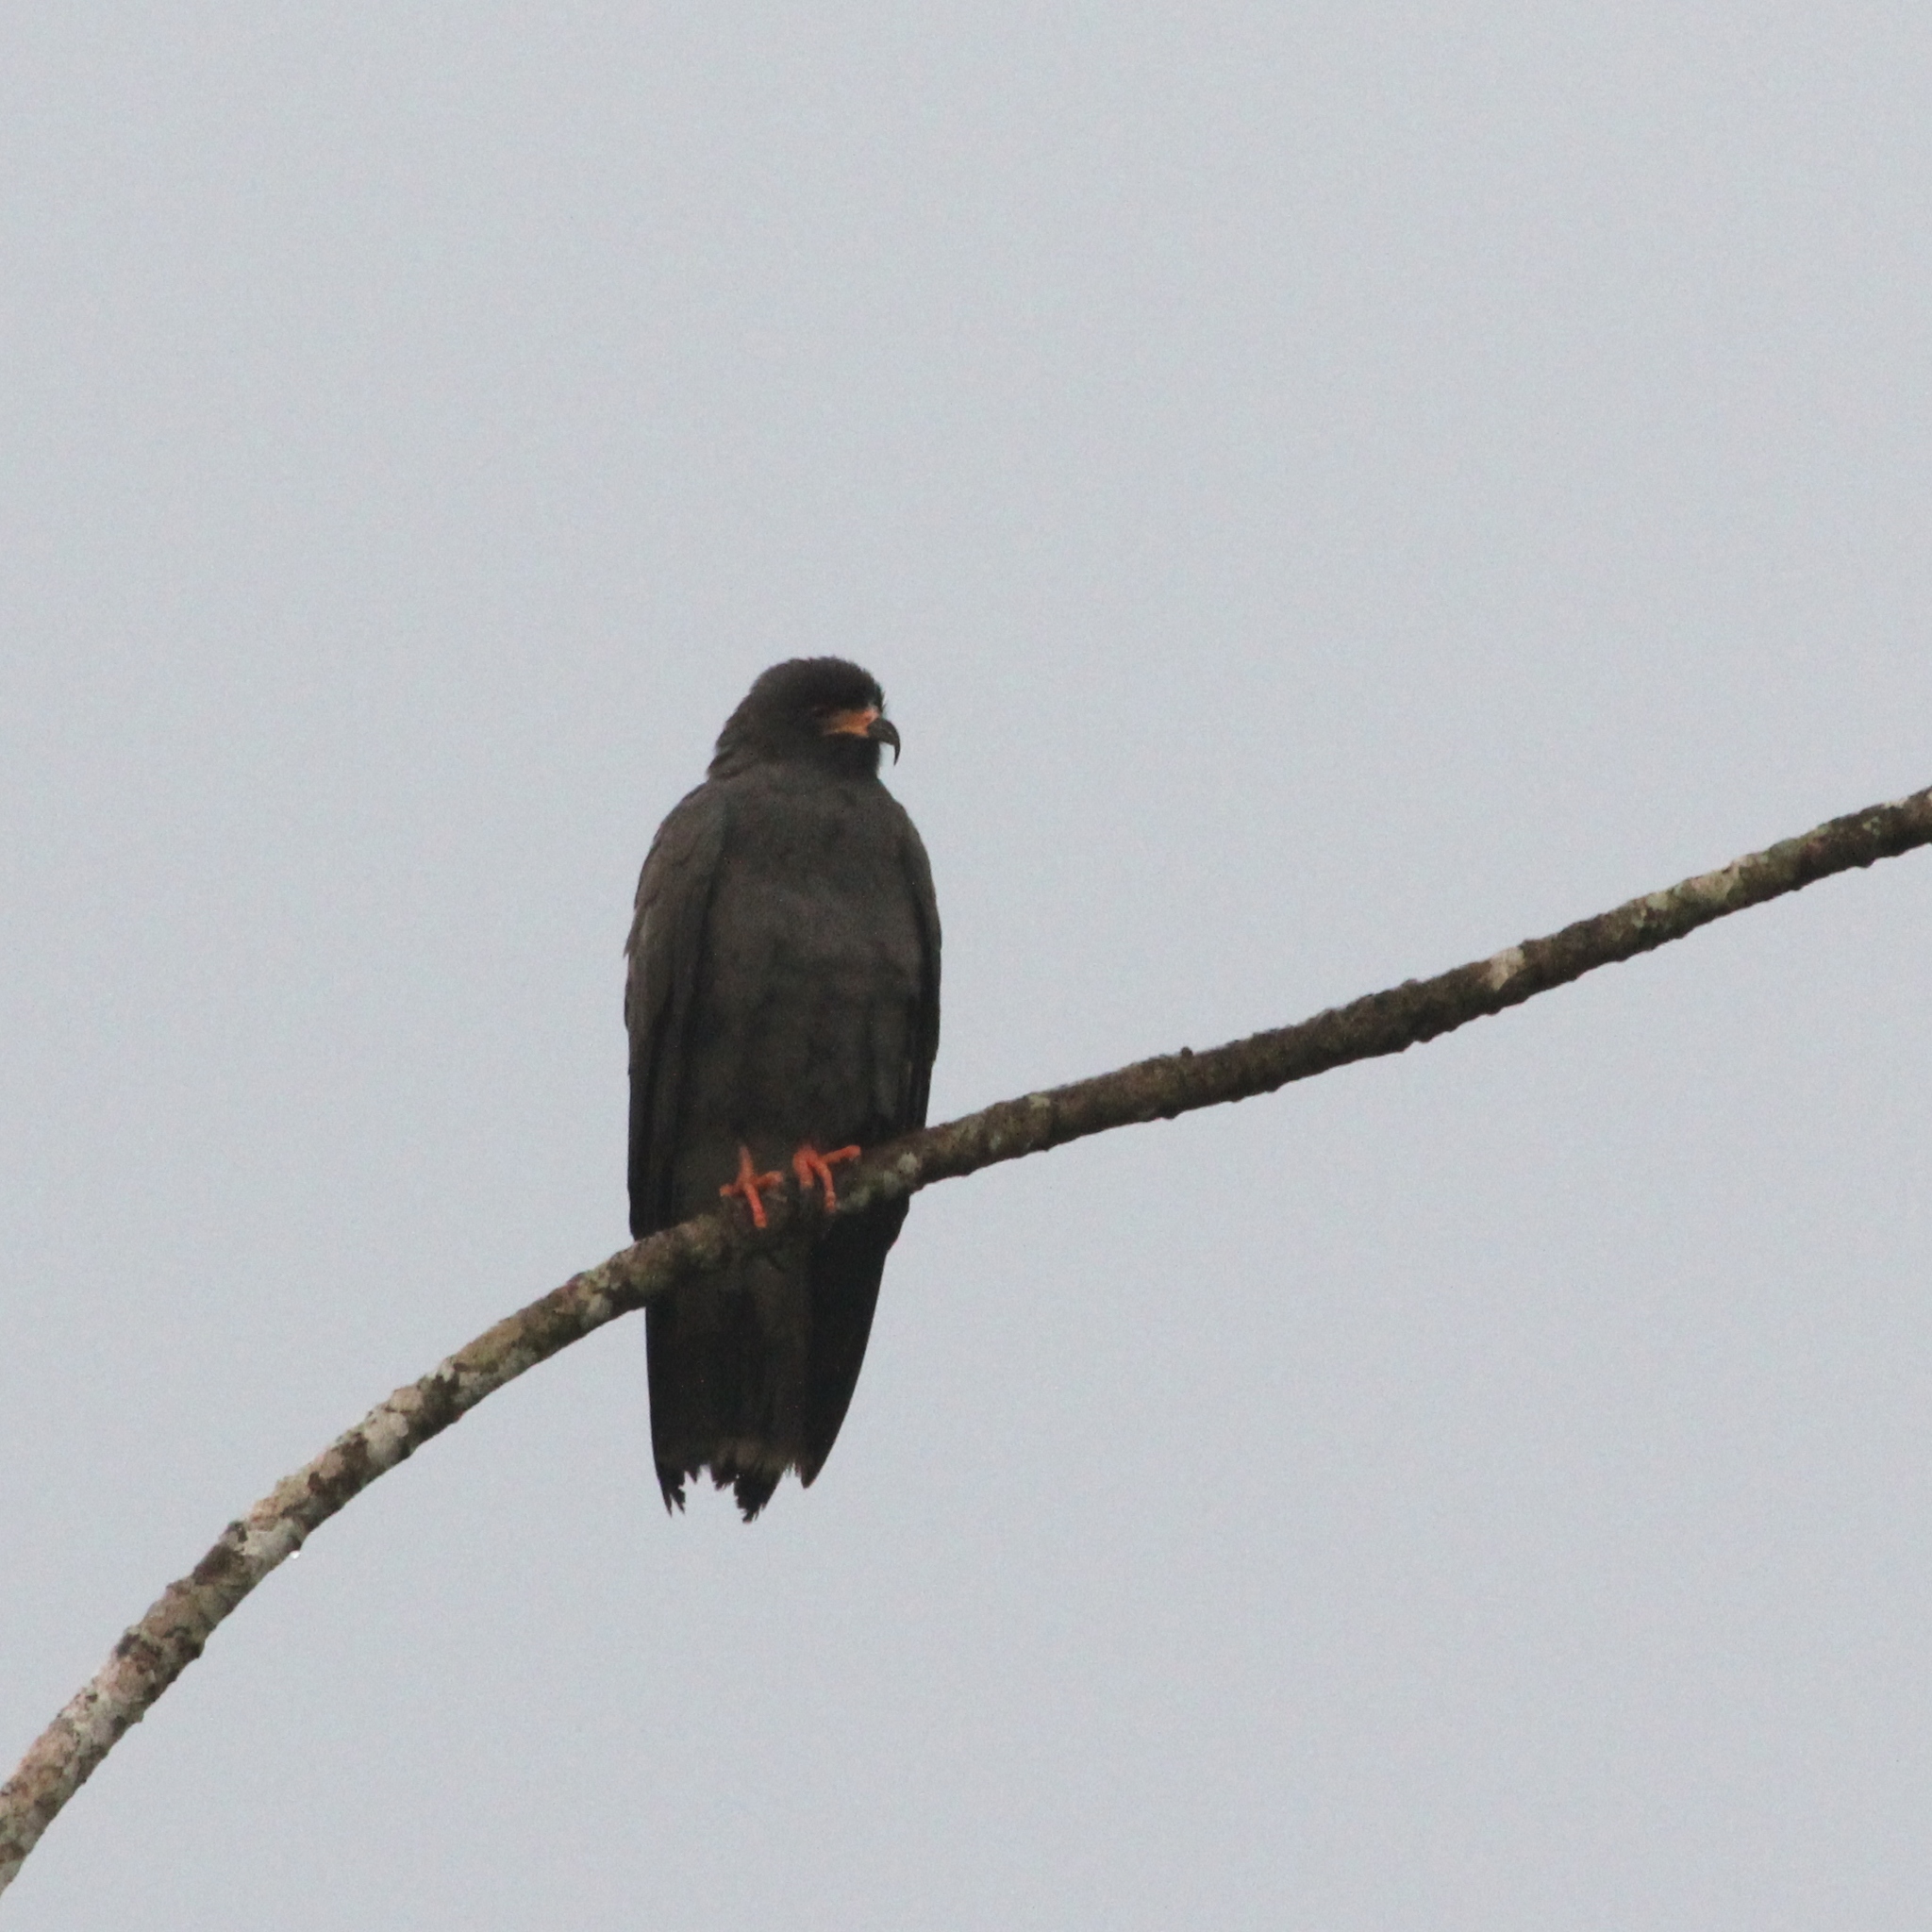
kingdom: Animalia
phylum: Chordata
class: Aves
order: Accipitriformes
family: Accipitridae
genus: Rostrhamus
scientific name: Rostrhamus sociabilis
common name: Snail kite
